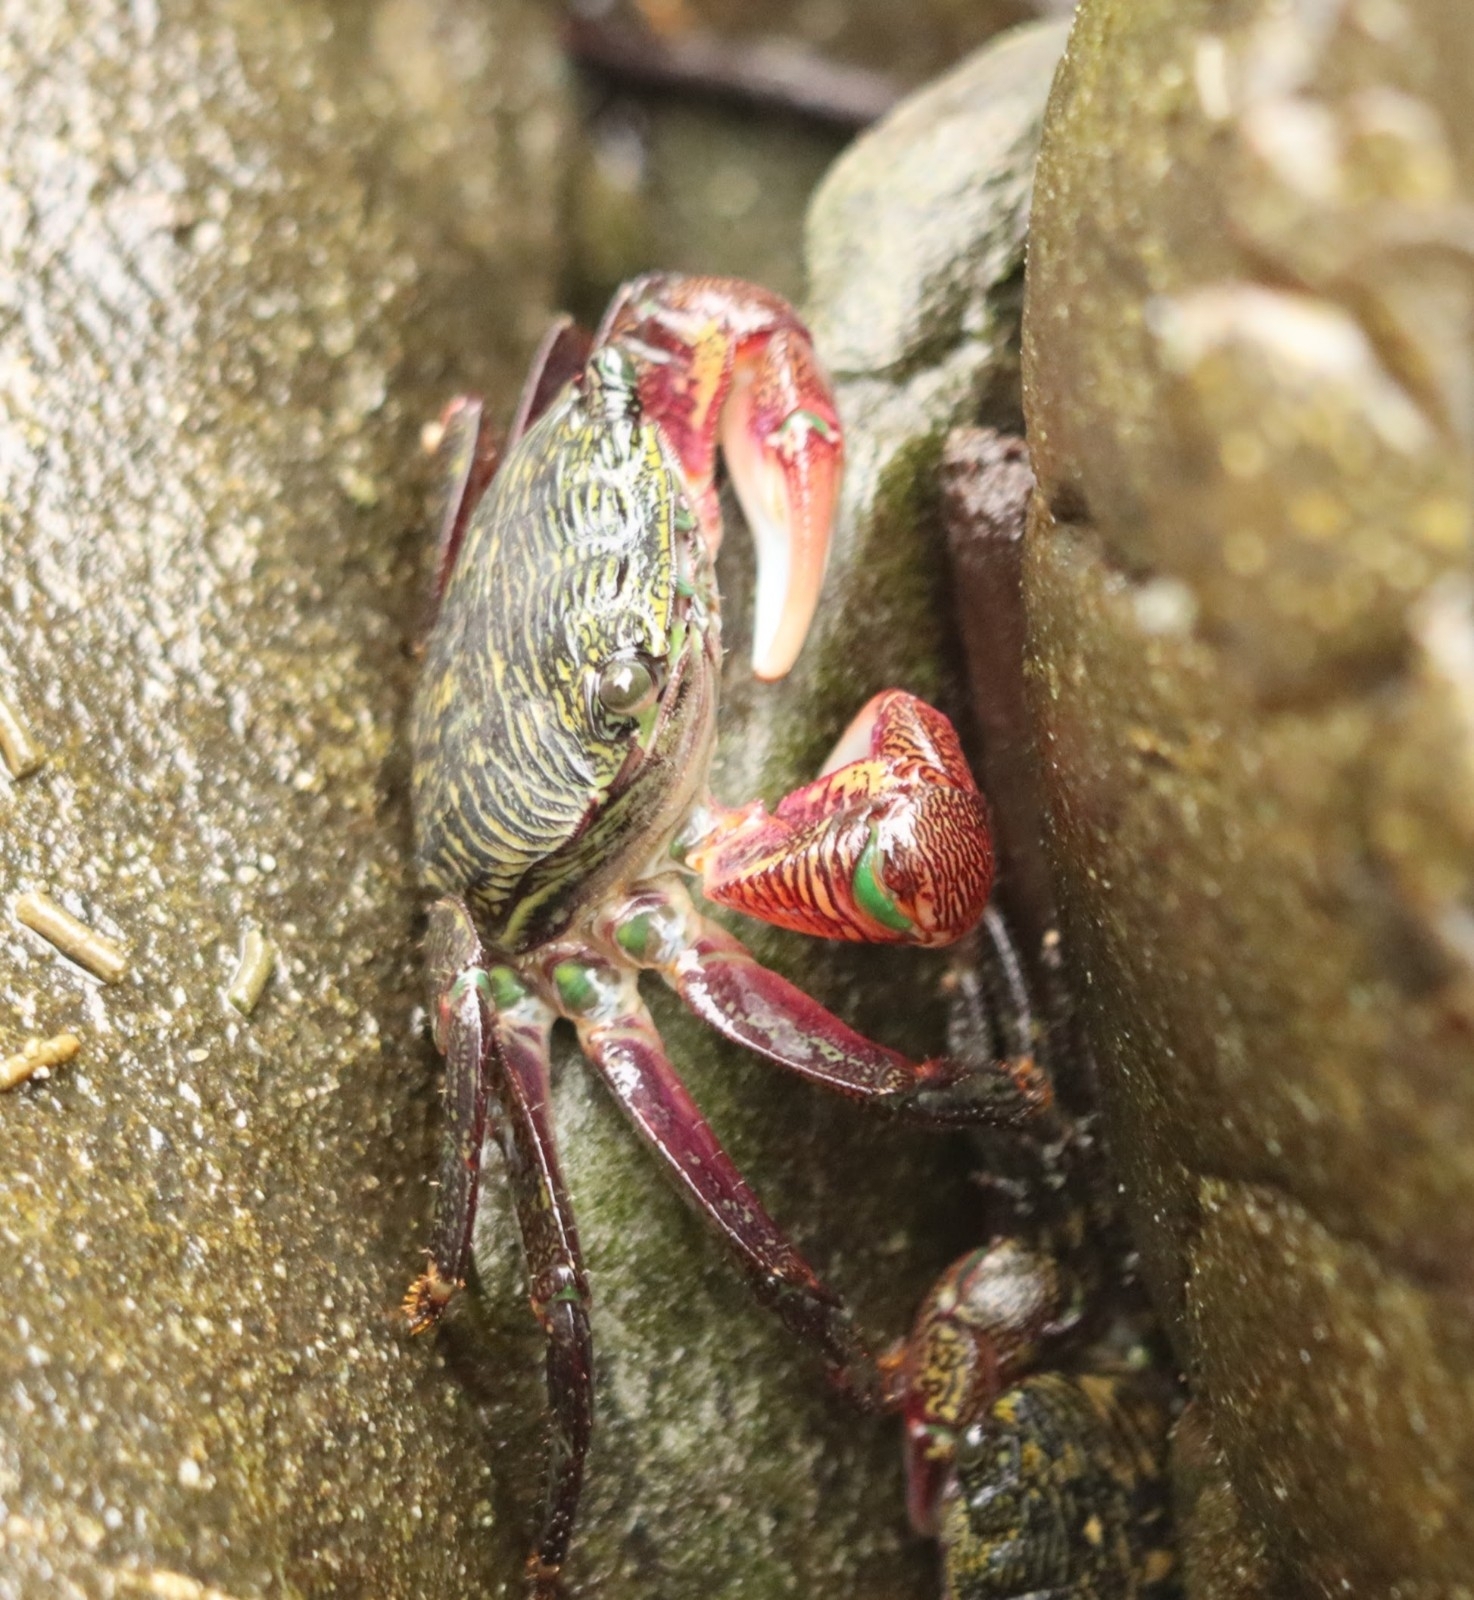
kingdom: Animalia
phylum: Arthropoda
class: Malacostraca
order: Decapoda
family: Grapsidae
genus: Pachygrapsus
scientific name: Pachygrapsus crassipes
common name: Striped shore crab
